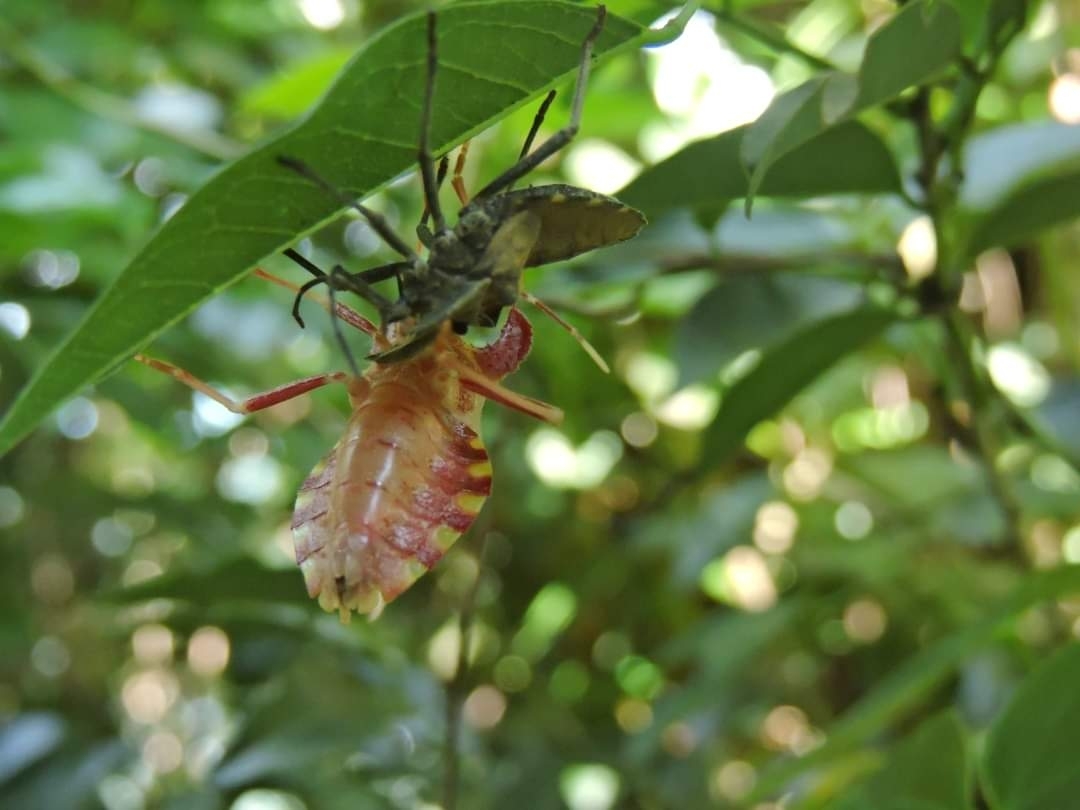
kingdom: Animalia
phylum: Arthropoda
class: Insecta
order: Hemiptera
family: Coreidae
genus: Menenotus
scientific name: Menenotus diminutus
